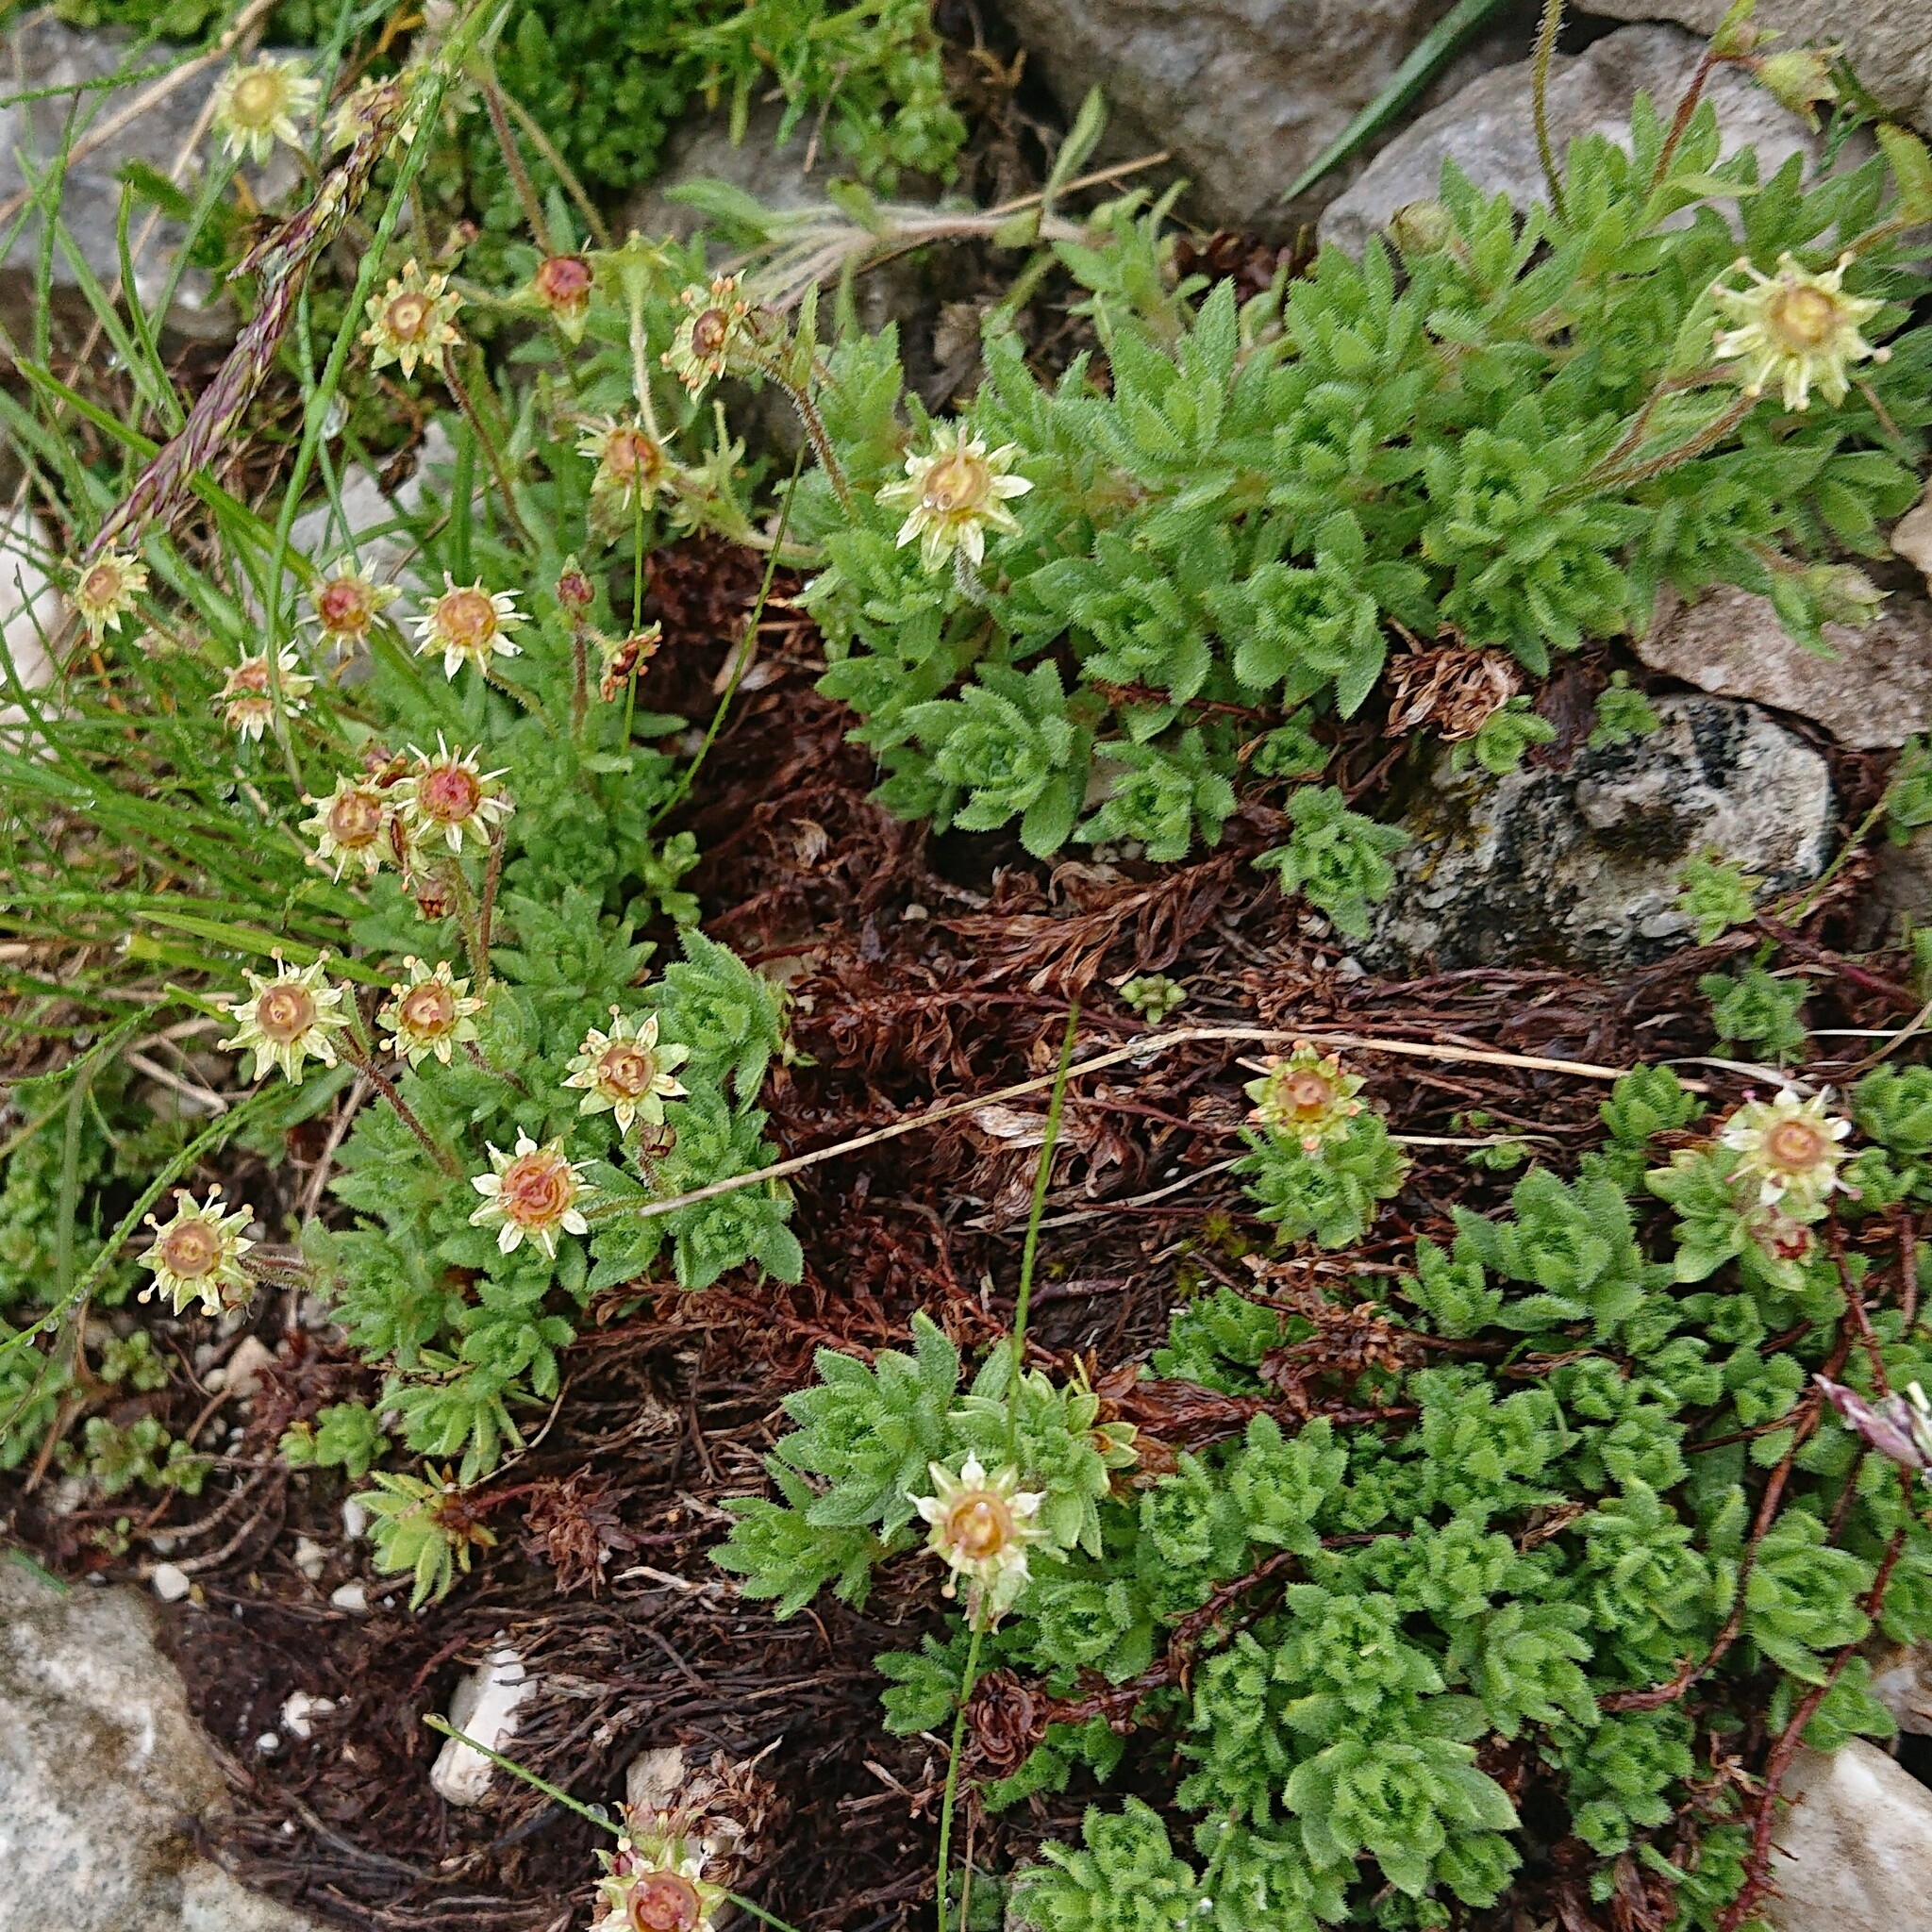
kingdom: Plantae
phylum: Tracheophyta
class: Magnoliopsida
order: Saxifragales
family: Saxifragaceae
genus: Saxifraga
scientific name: Saxifraga sedoides
